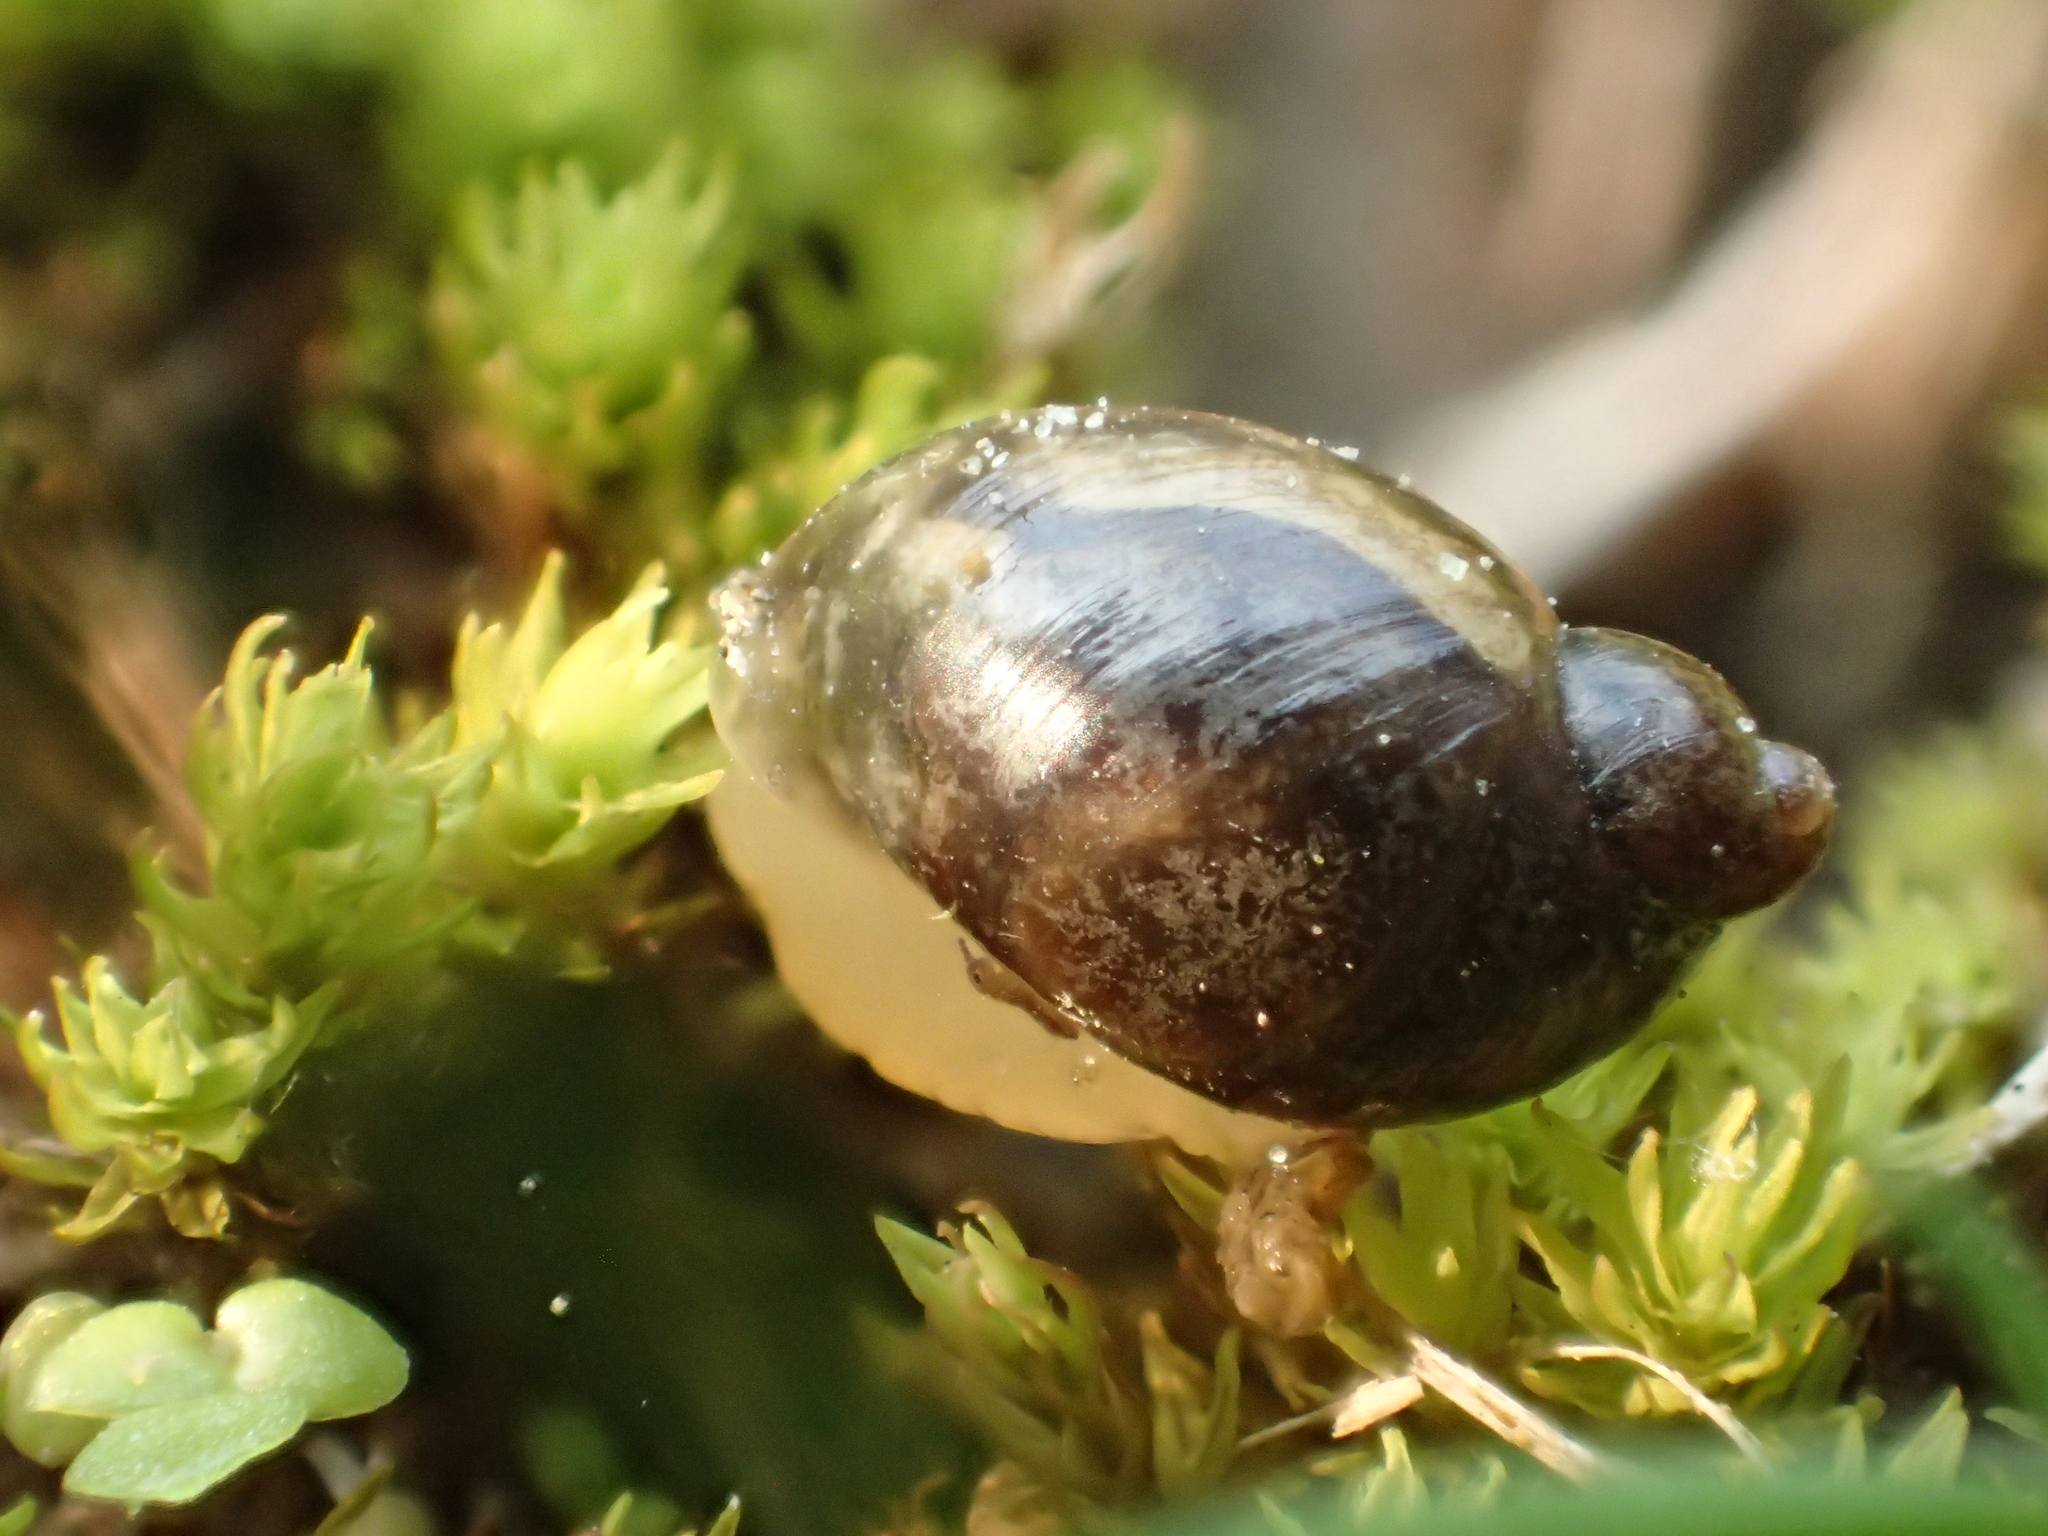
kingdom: Animalia
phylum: Mollusca
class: Gastropoda
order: Stylommatophora
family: Succineidae
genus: Novisuccinea
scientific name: Novisuccinea lyrata
